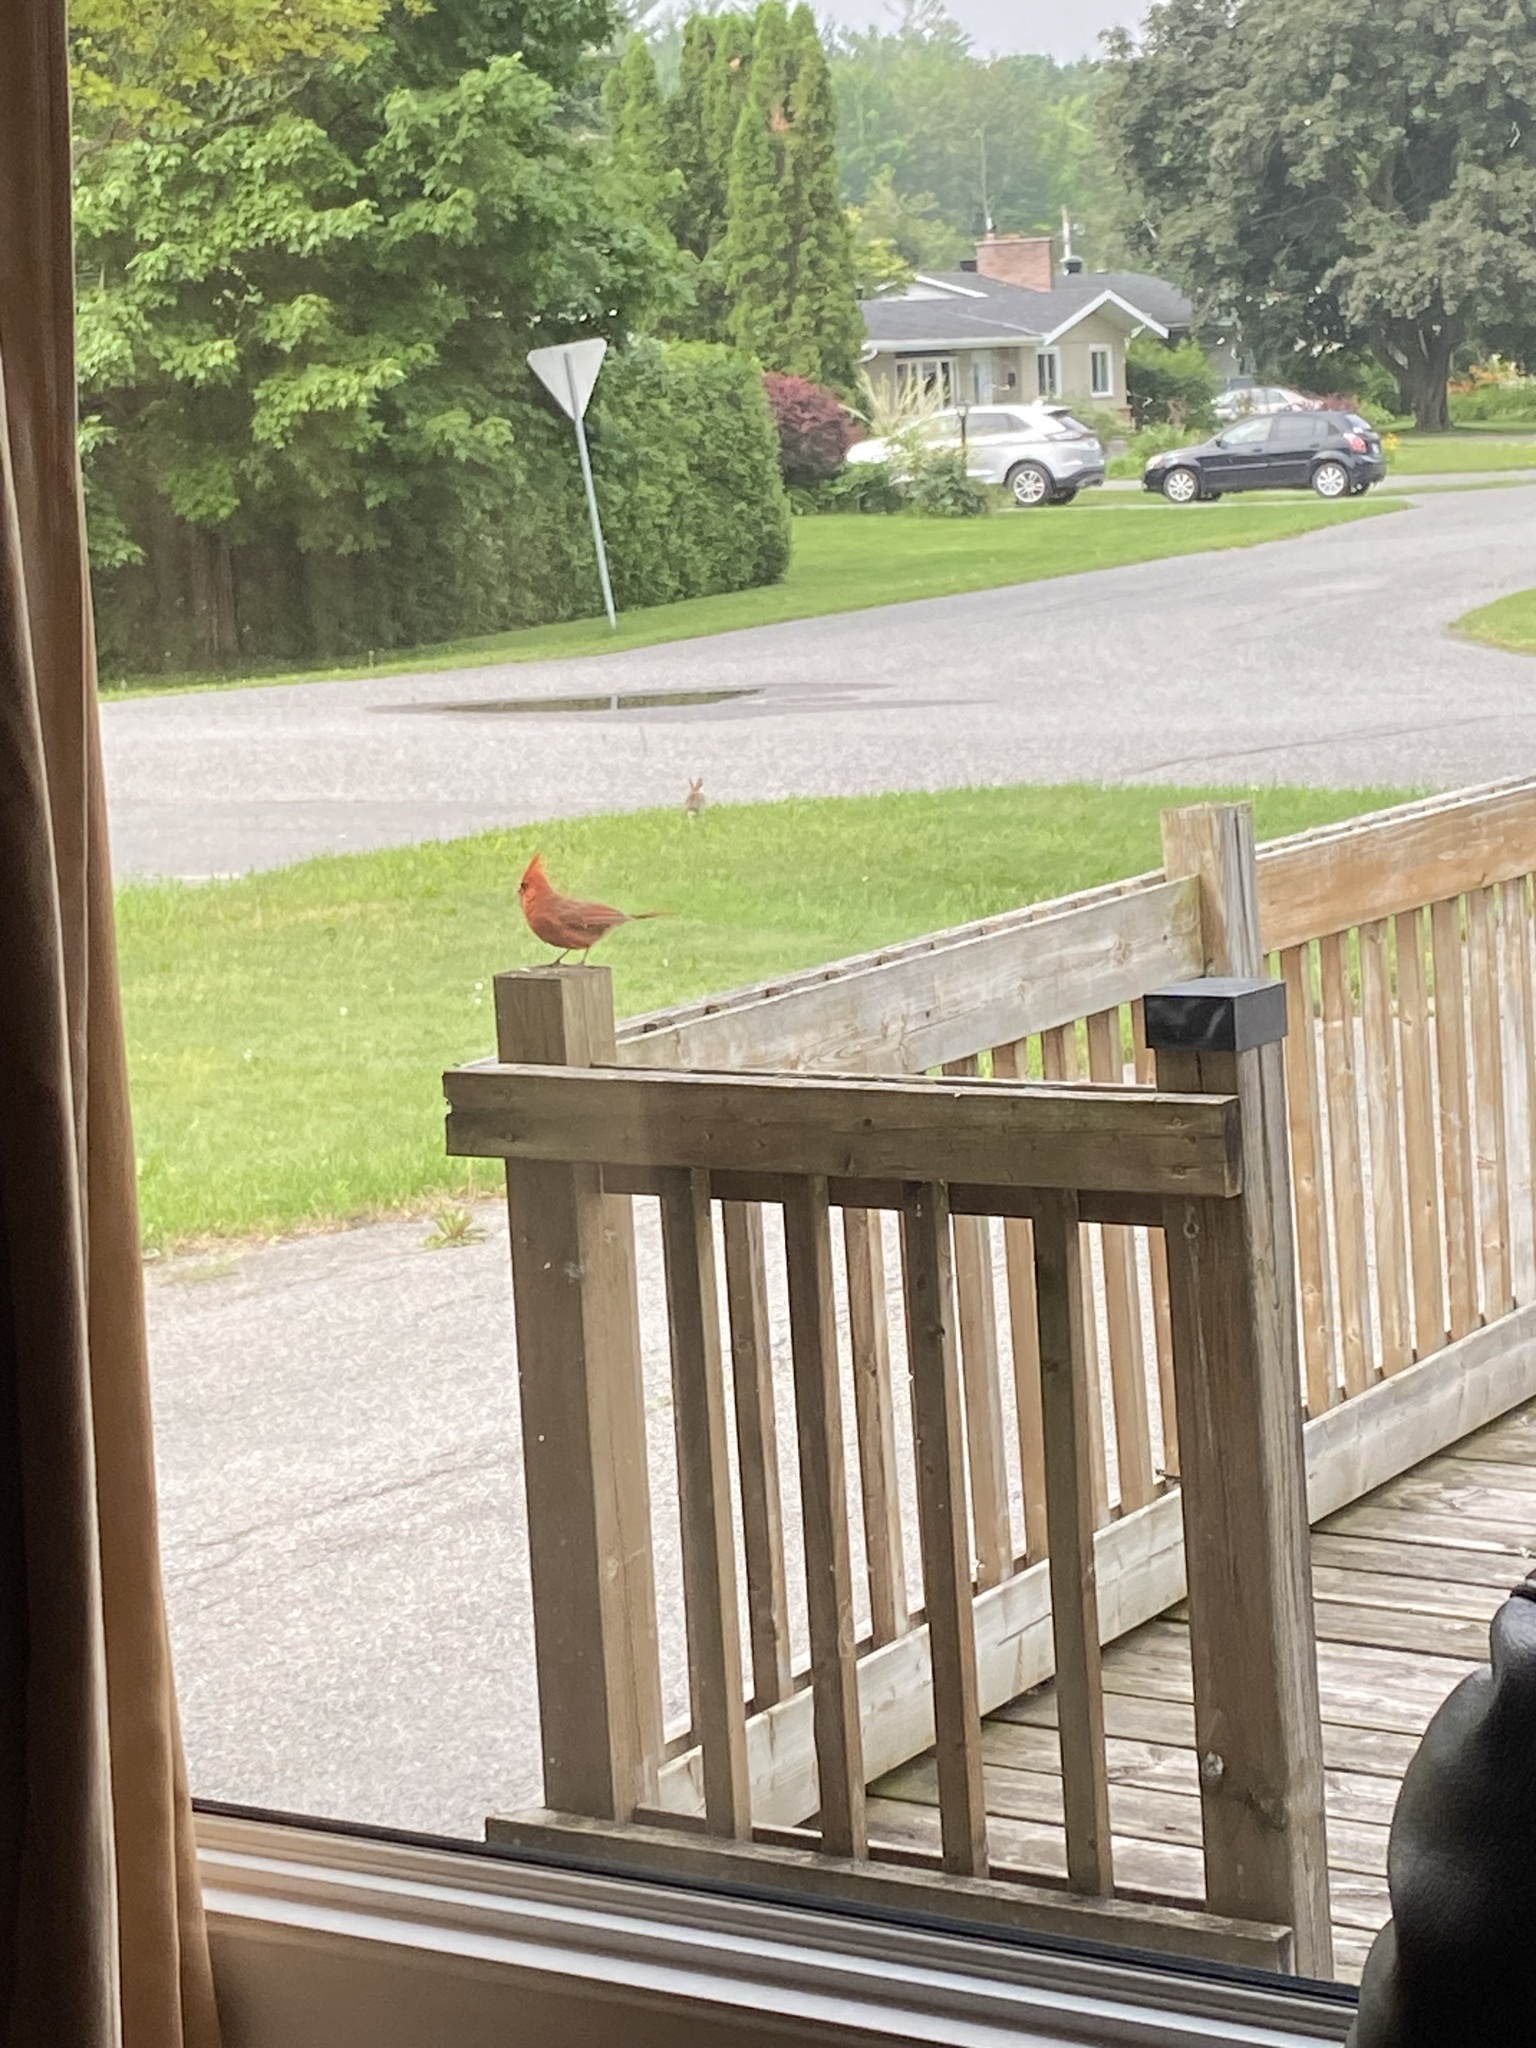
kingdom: Animalia
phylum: Chordata
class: Aves
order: Passeriformes
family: Cardinalidae
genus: Cardinalis
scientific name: Cardinalis cardinalis
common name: Northern cardinal
